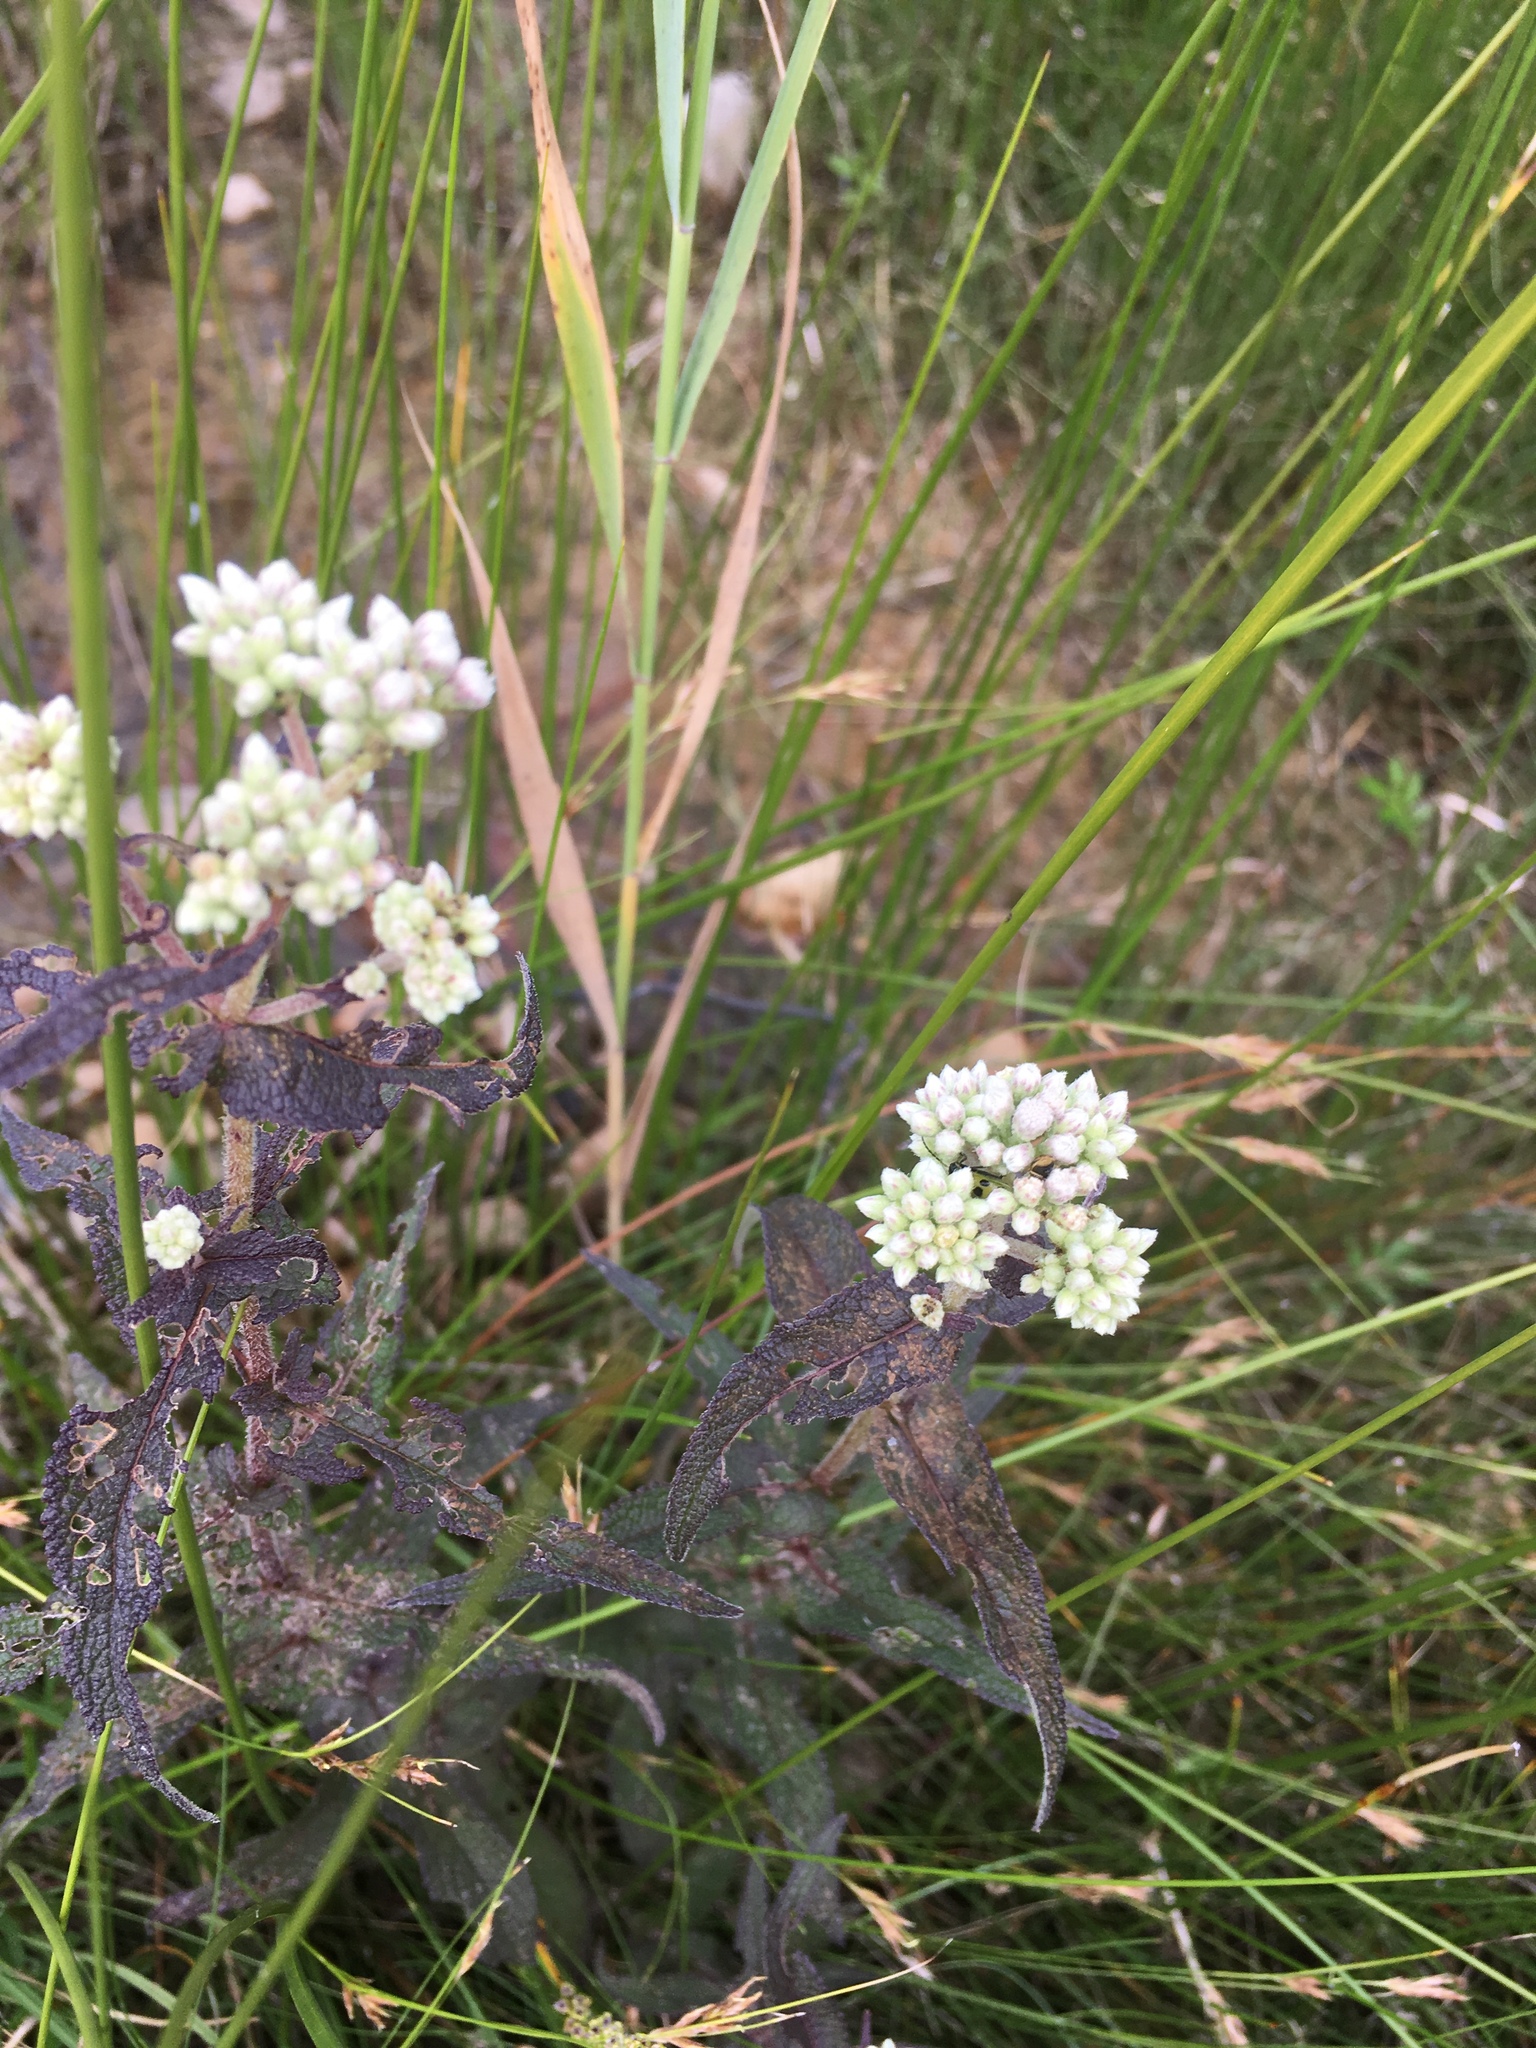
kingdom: Plantae
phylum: Tracheophyta
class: Magnoliopsida
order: Asterales
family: Asteraceae
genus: Eupatorium
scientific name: Eupatorium perfoliatum
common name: Boneset
